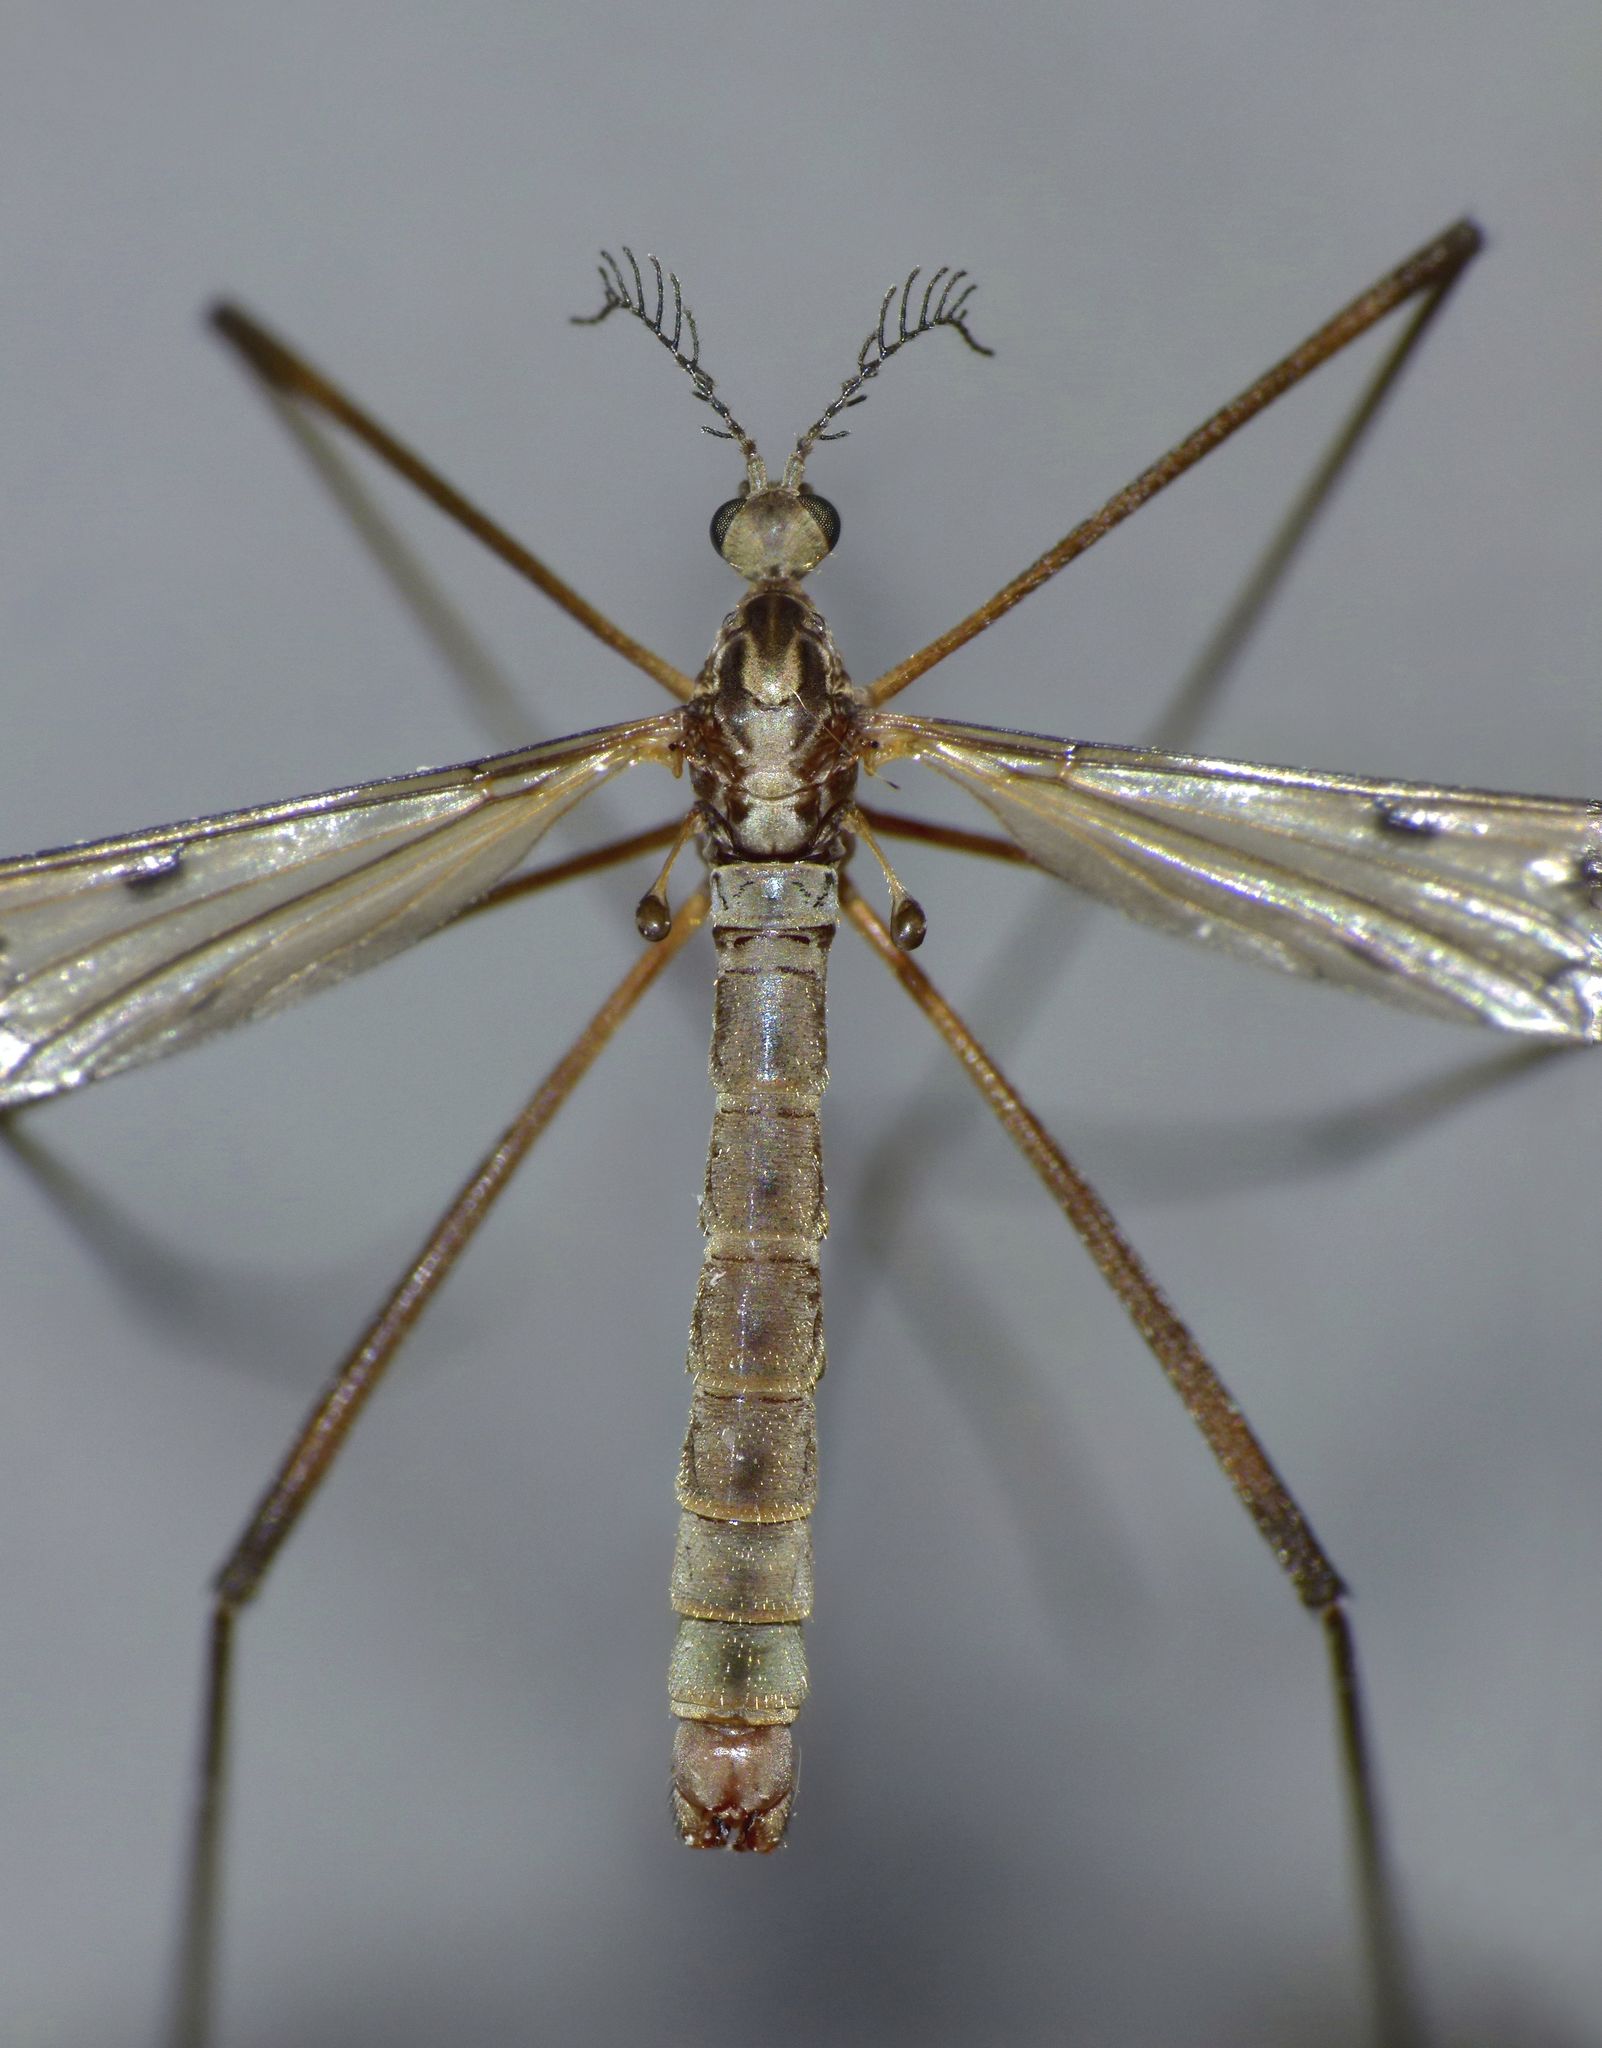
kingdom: Animalia
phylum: Arthropoda
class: Insecta
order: Diptera
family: Limoniidae
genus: Gynoplistia
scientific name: Gynoplistia inconjuncta
